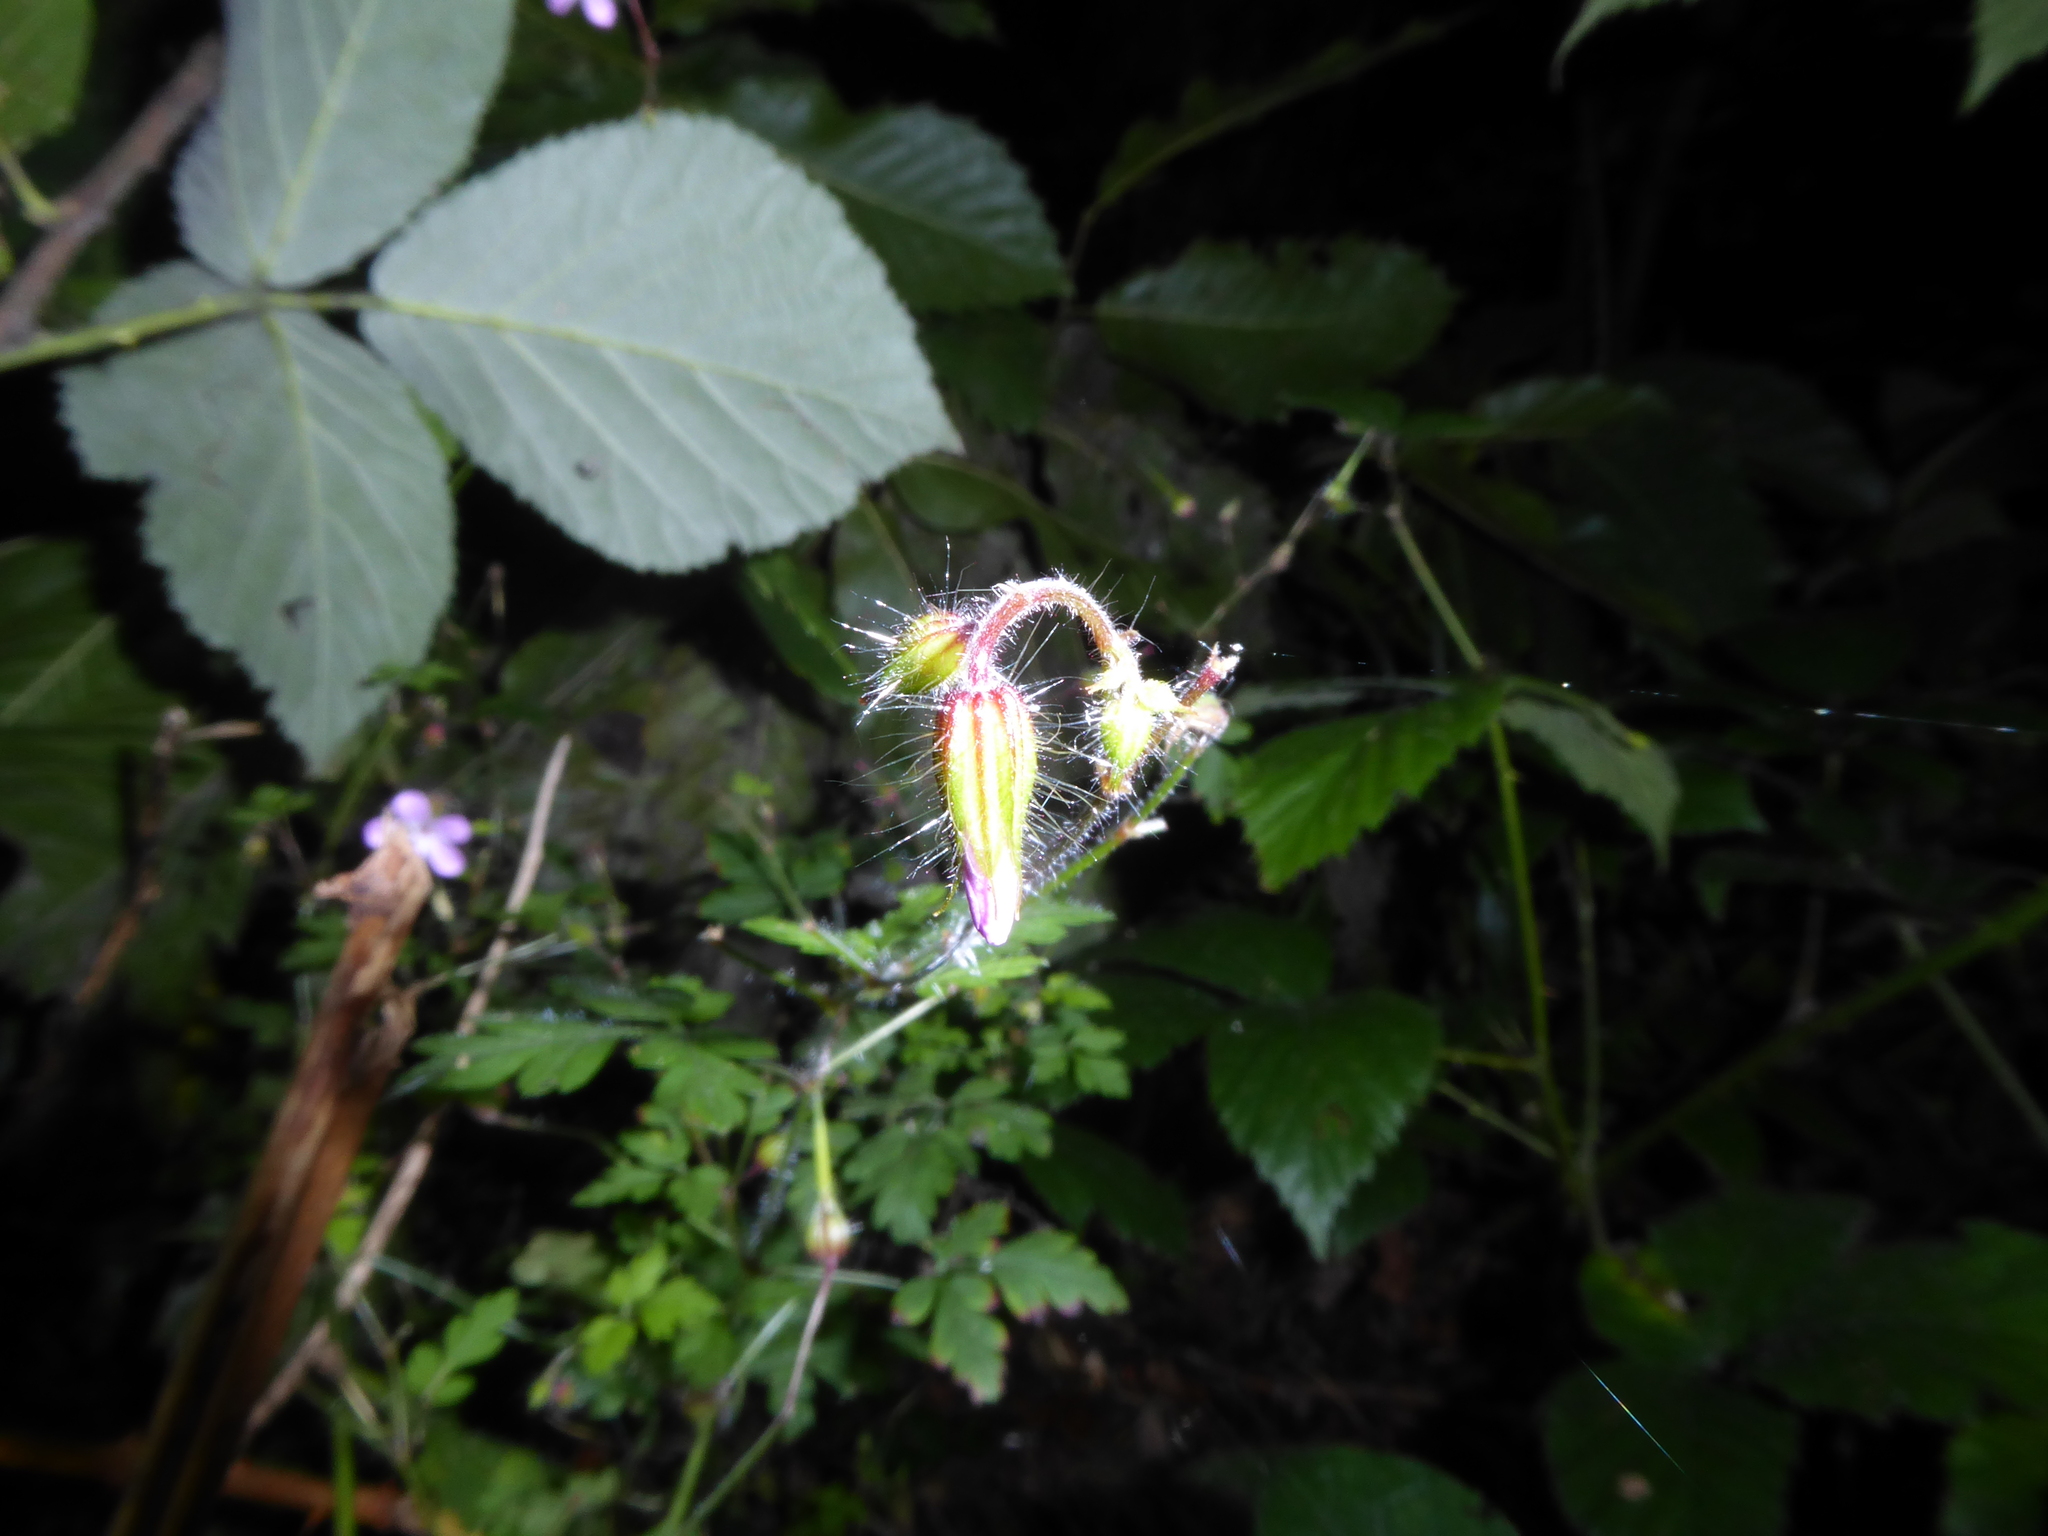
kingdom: Plantae
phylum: Tracheophyta
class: Magnoliopsida
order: Geraniales
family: Geraniaceae
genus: Geranium
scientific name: Geranium robertianum
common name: Herb-robert
